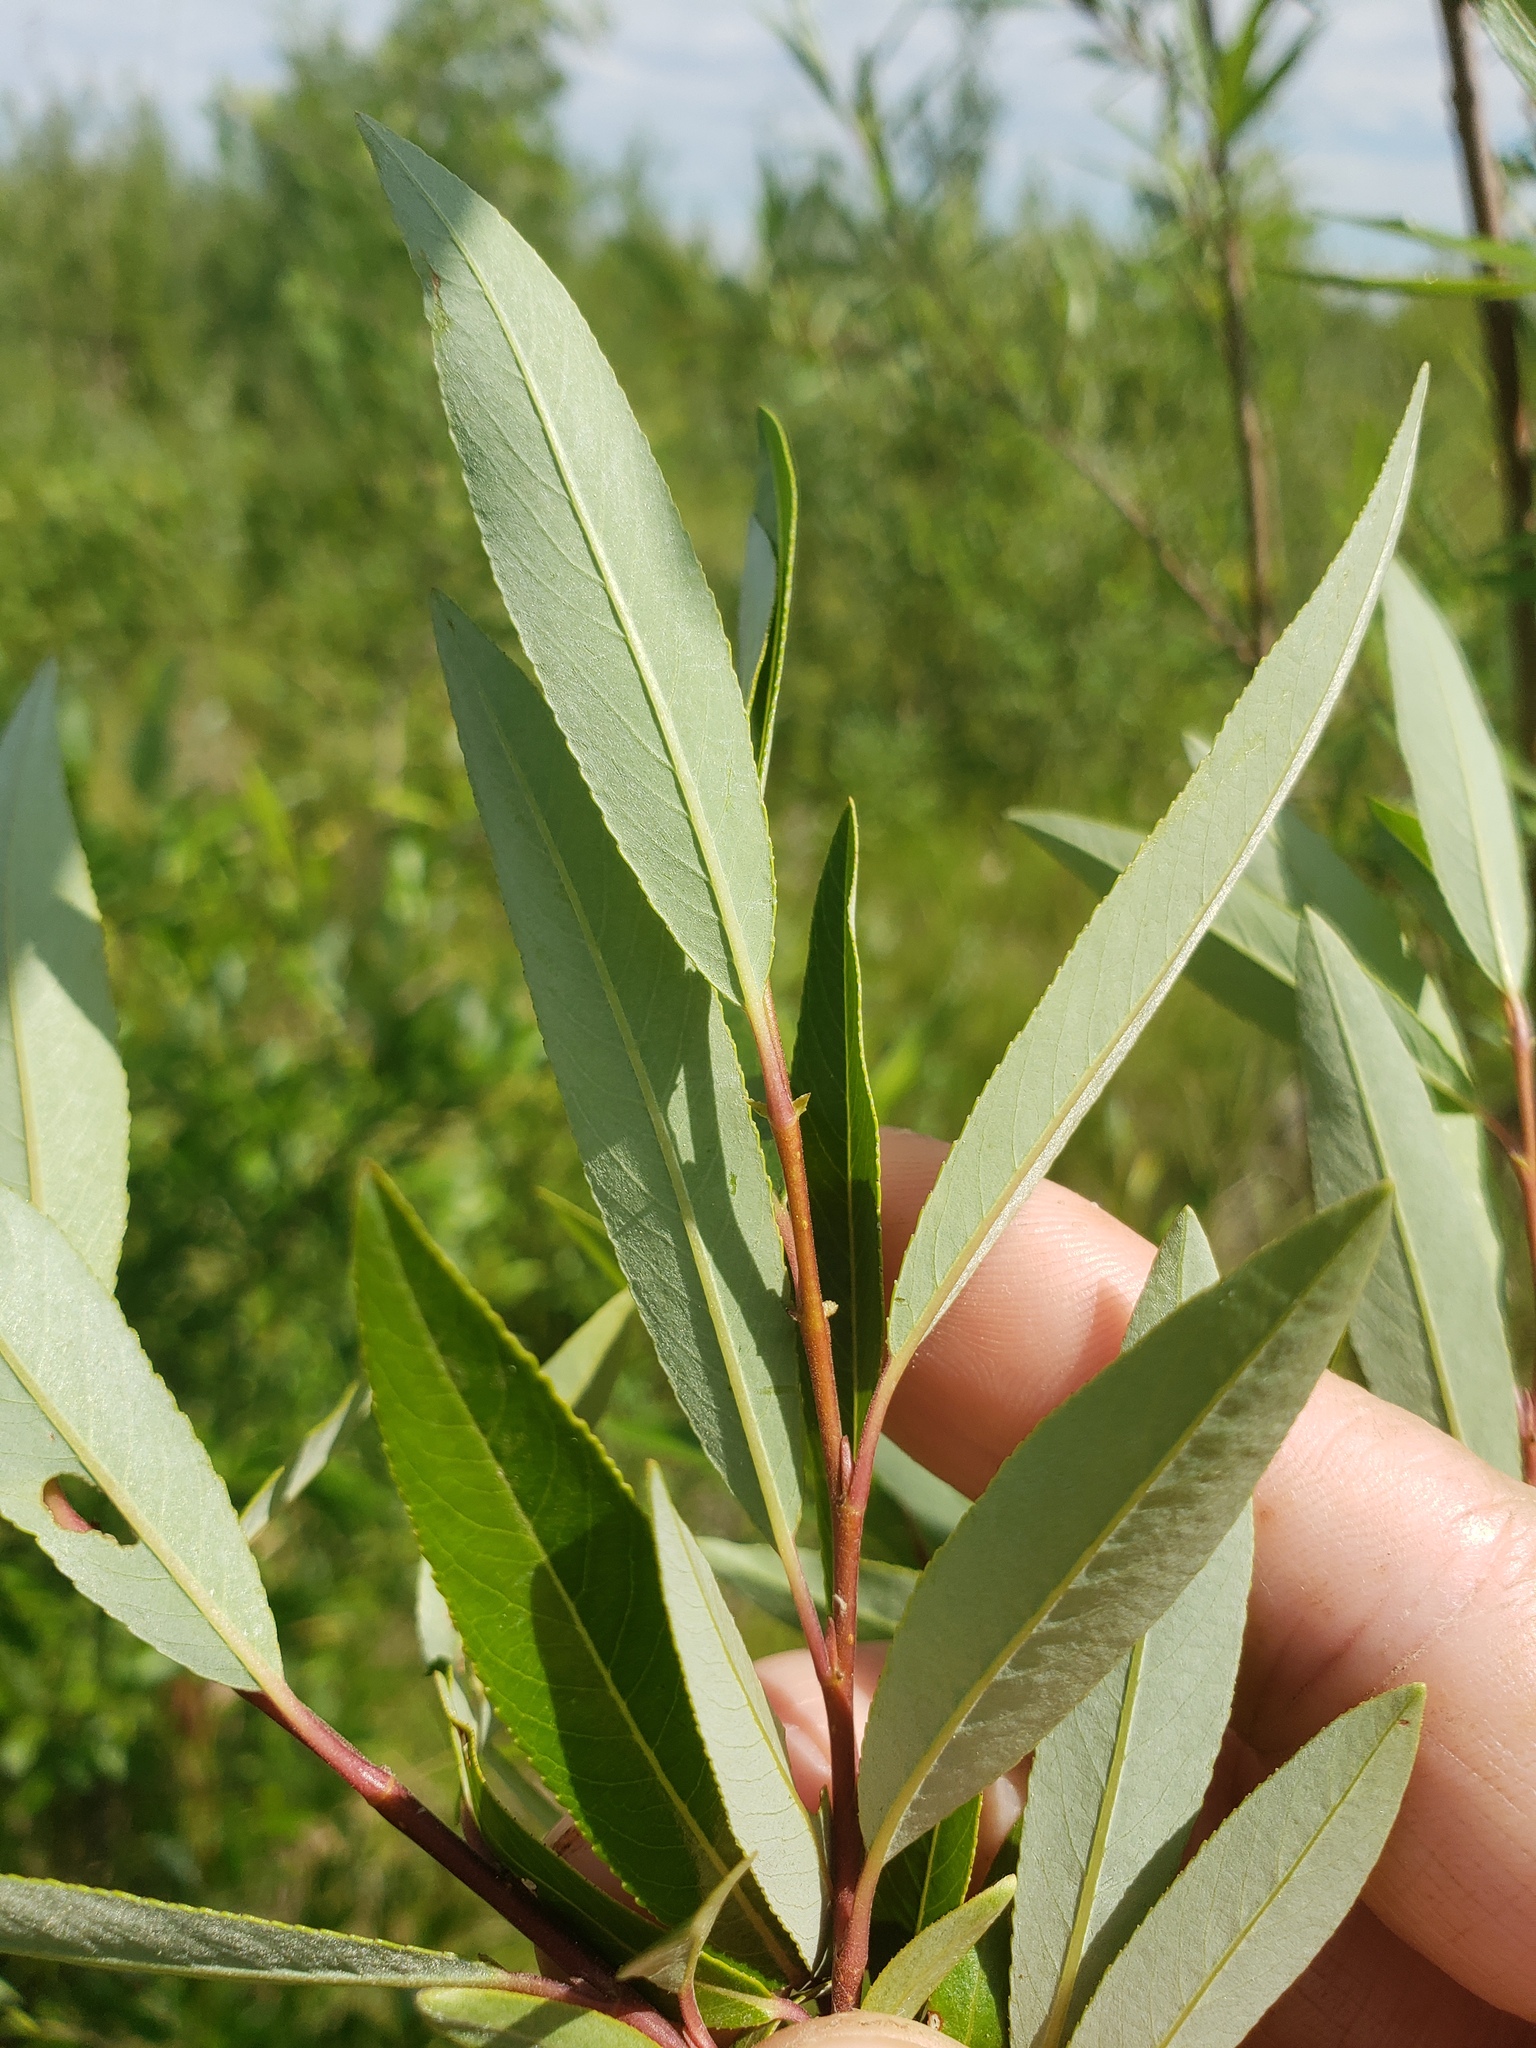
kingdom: Plantae
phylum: Tracheophyta
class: Magnoliopsida
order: Malpighiales
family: Salicaceae
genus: Salix
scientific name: Salix arbusculoides
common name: Little-tree willow
